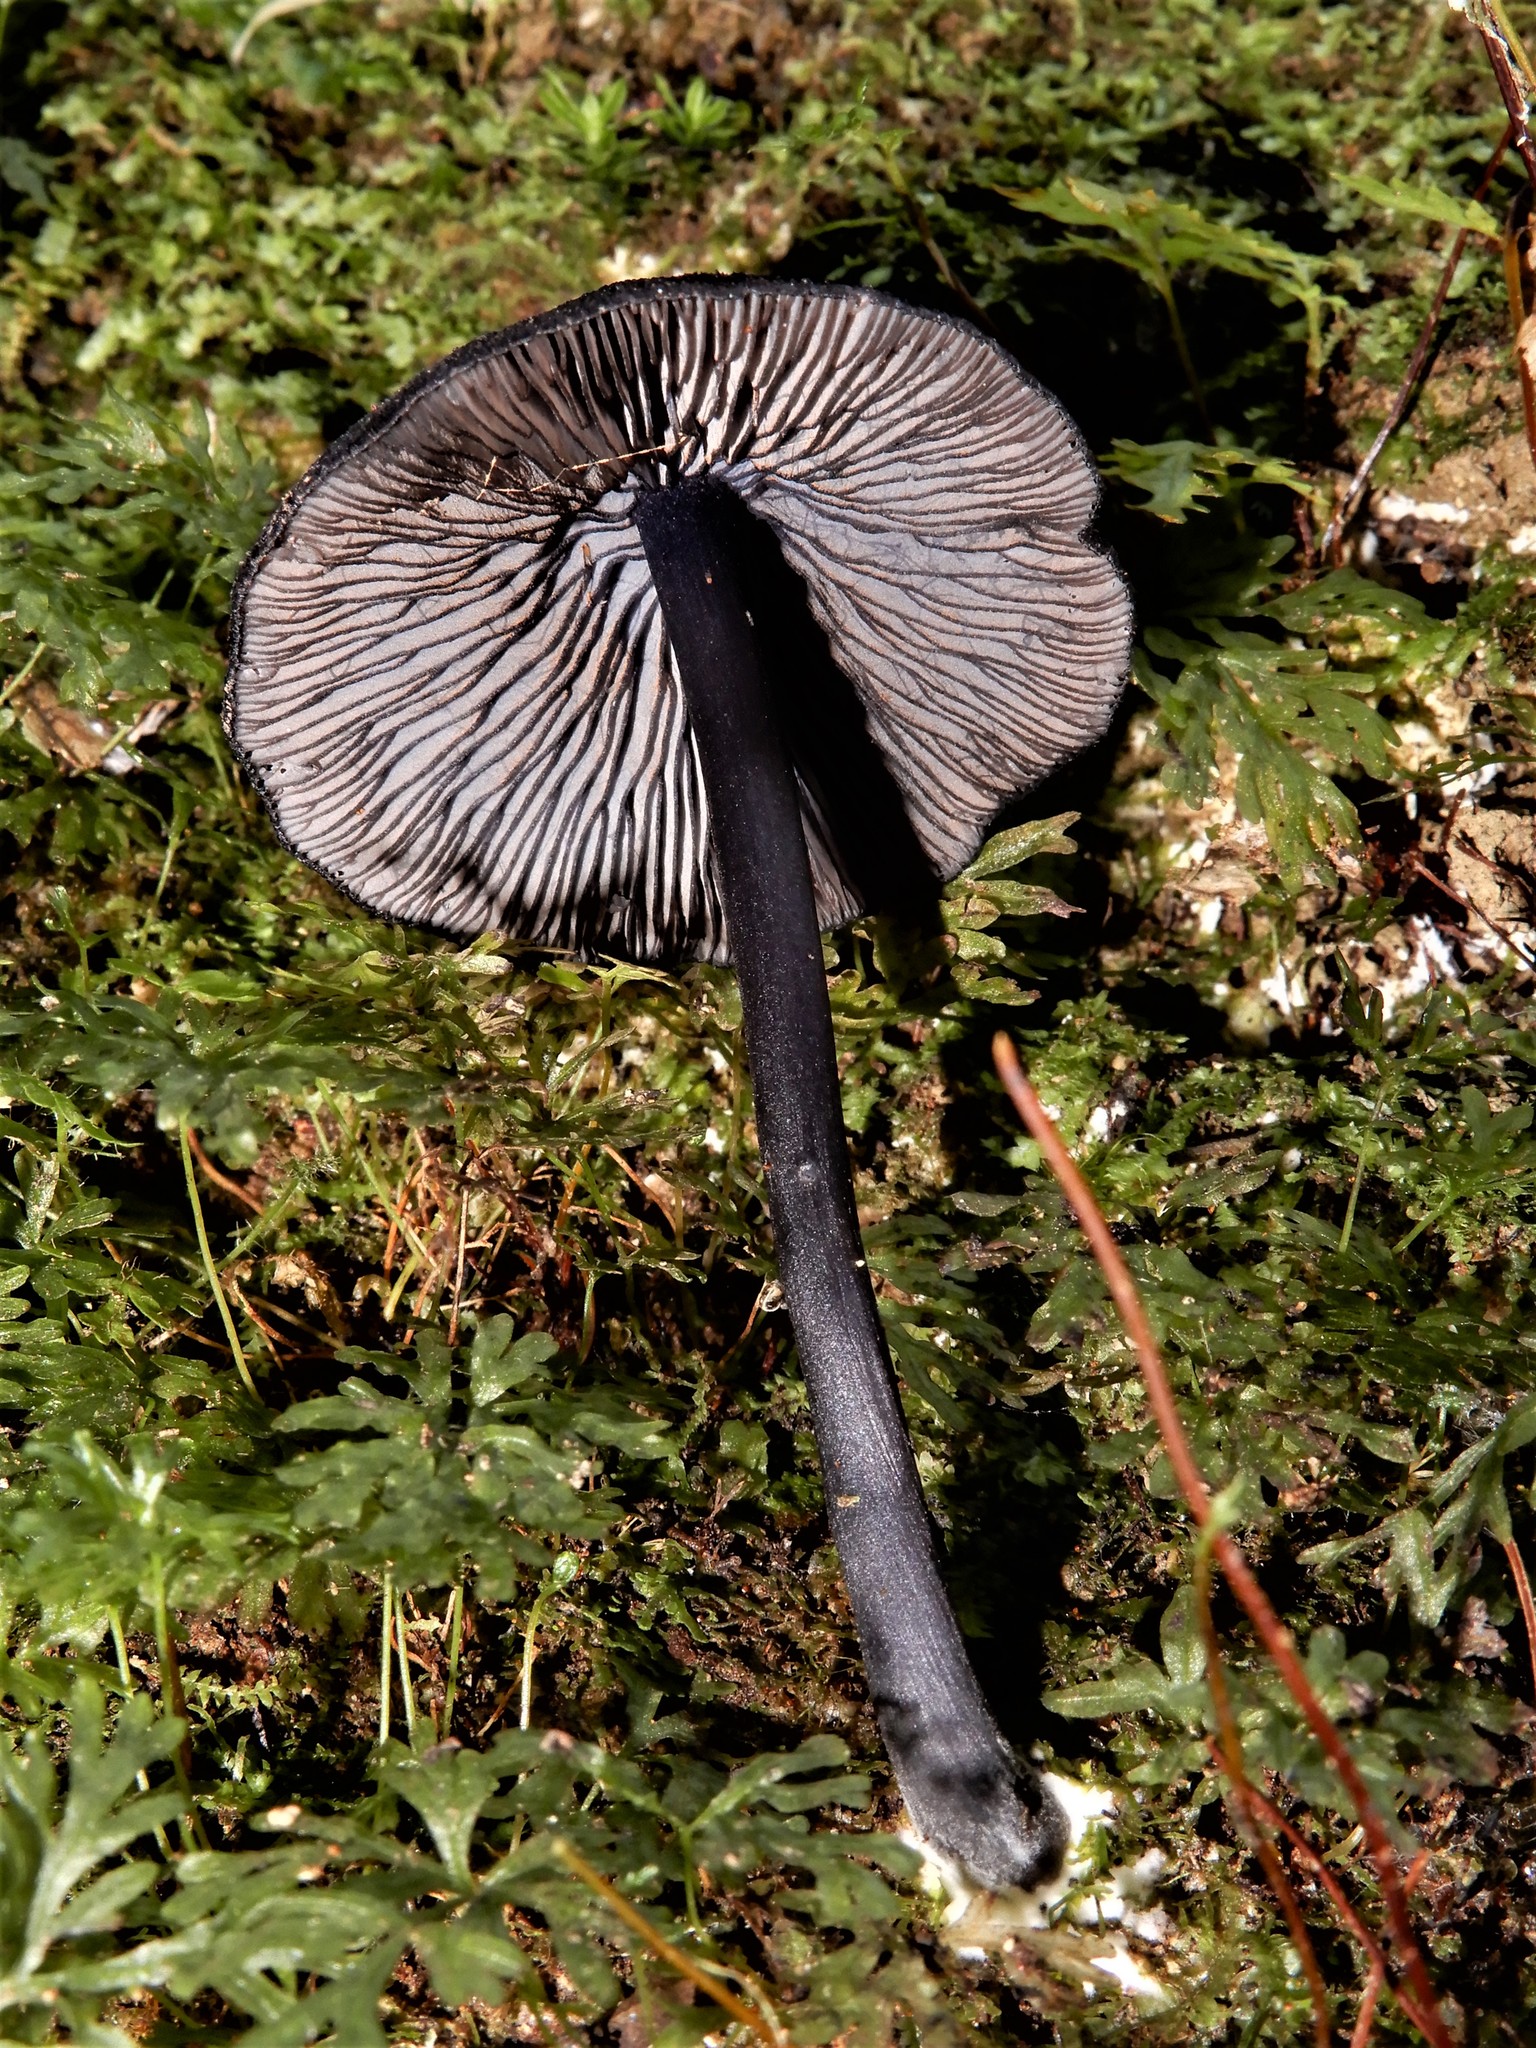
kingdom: Fungi
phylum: Basidiomycota
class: Agaricomycetes
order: Agaricales
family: Entolomataceae
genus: Entoloma
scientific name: Entoloma
